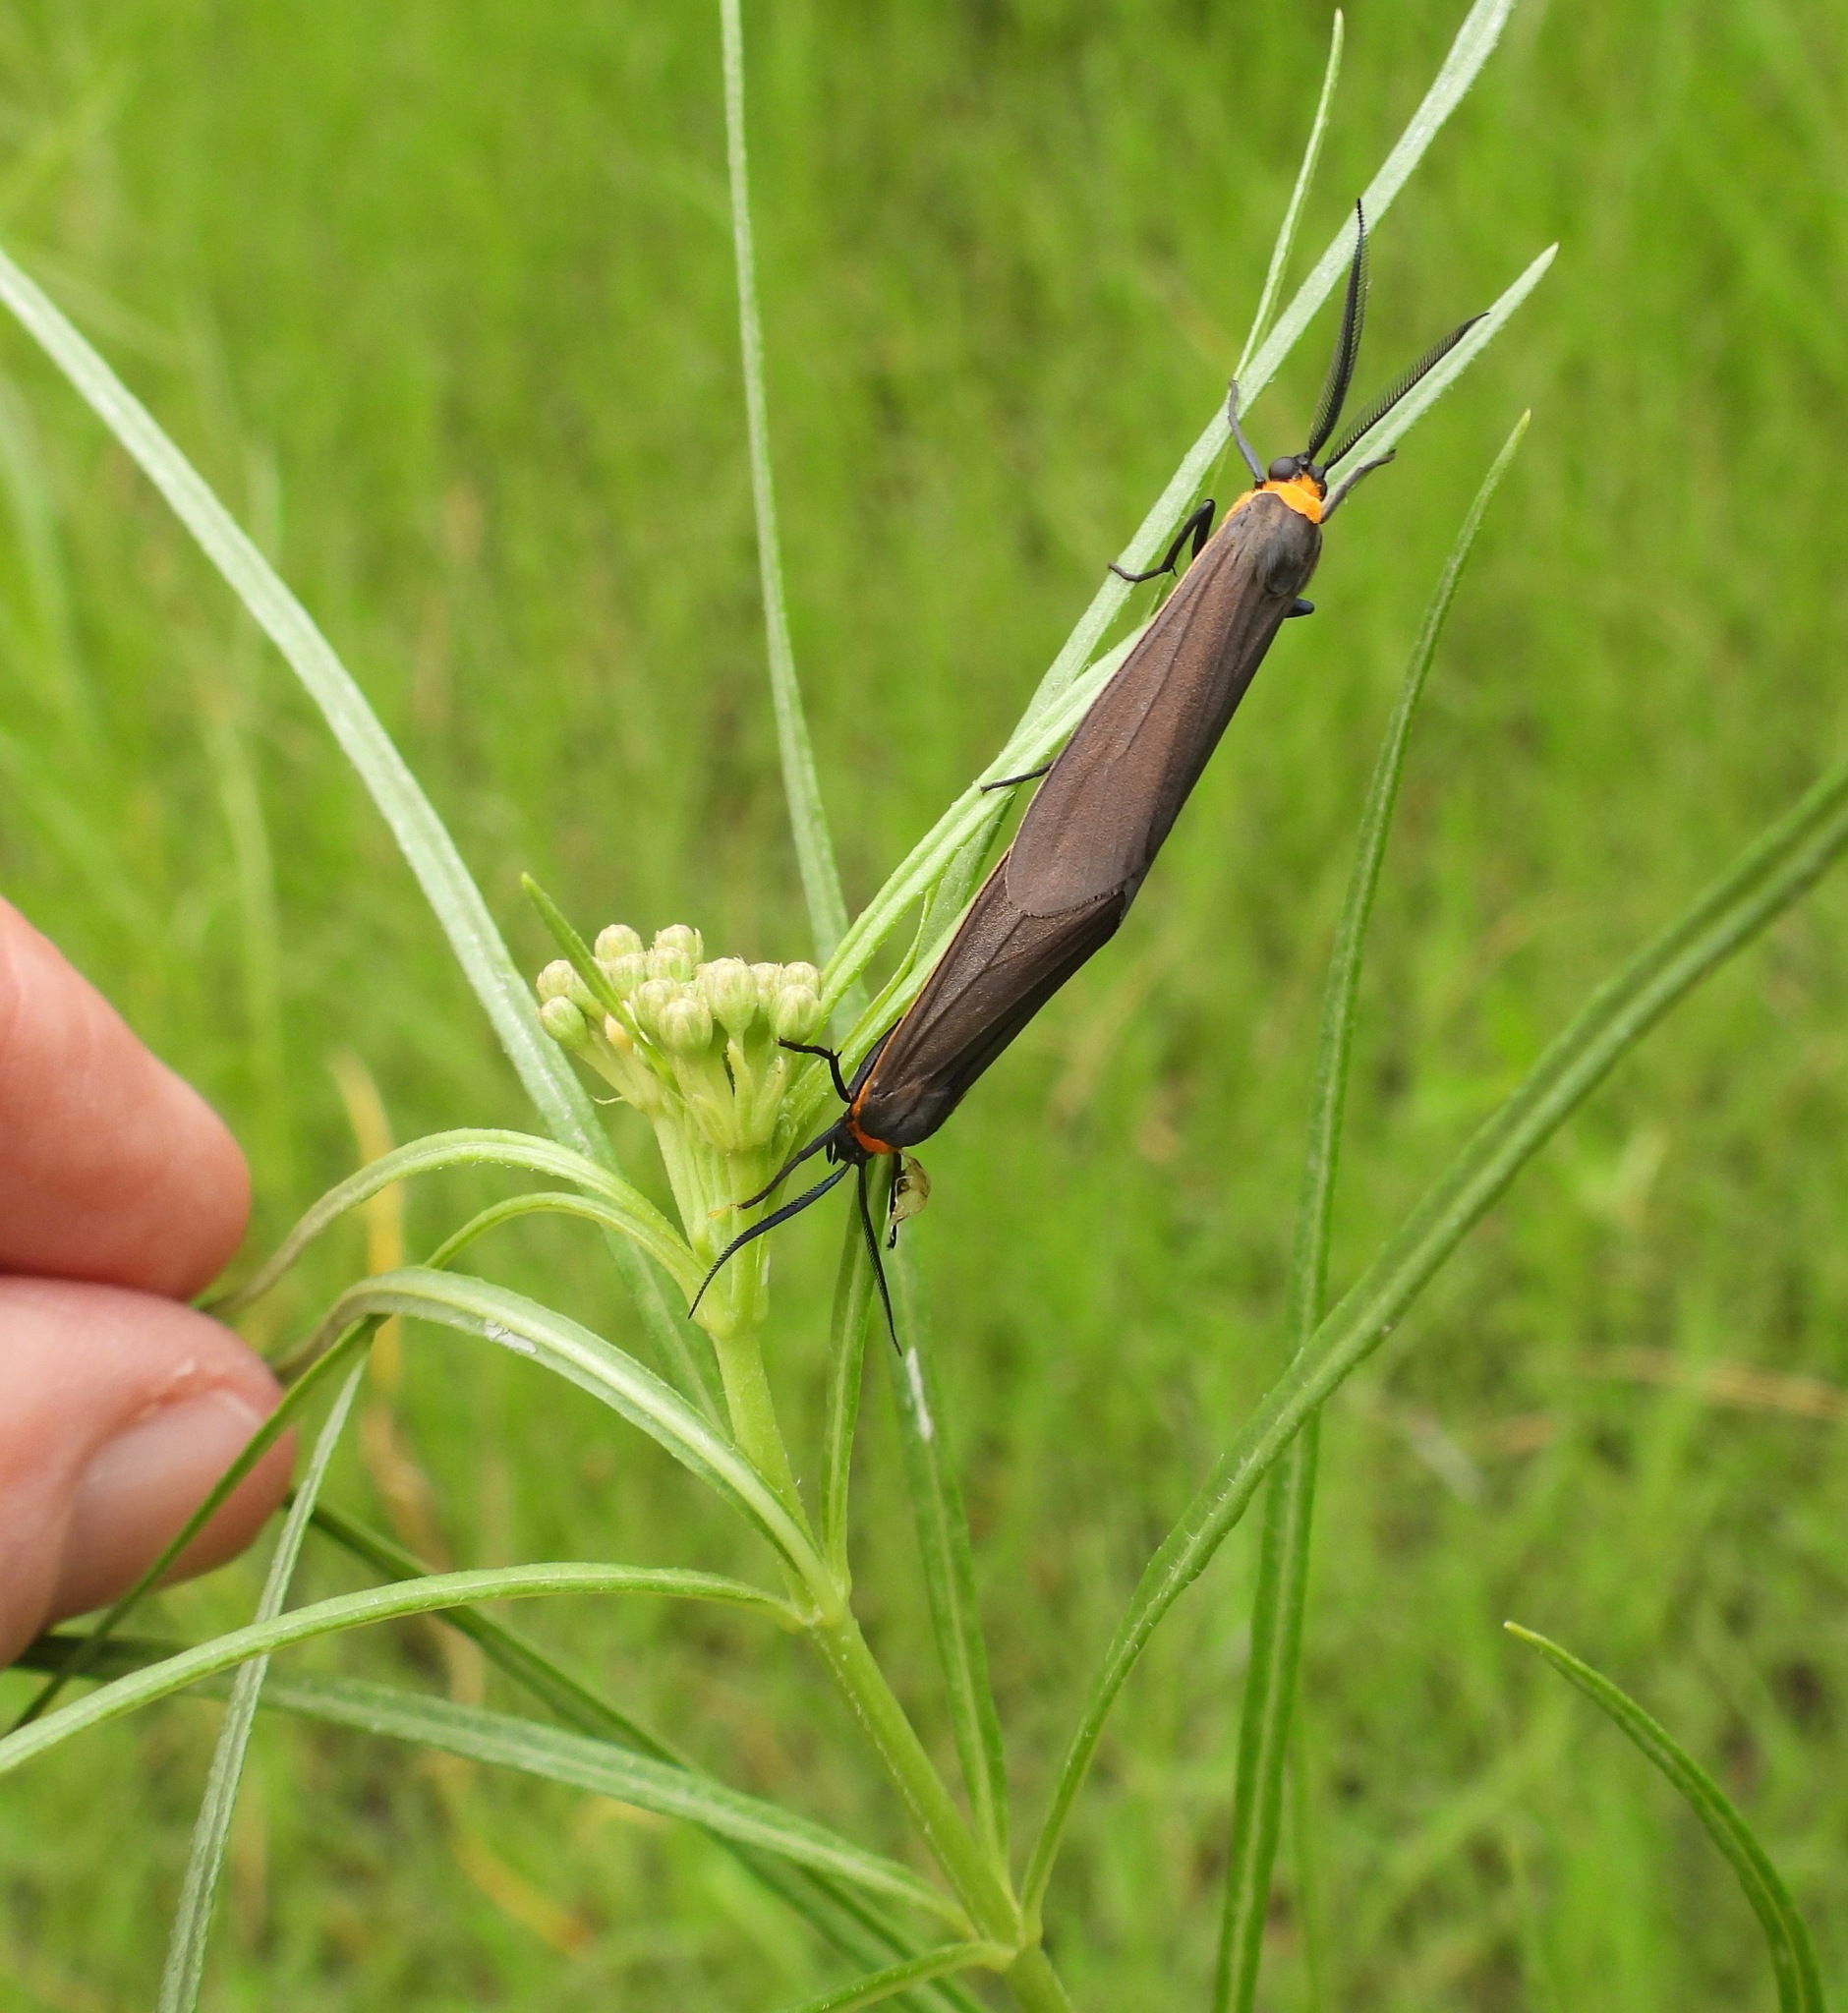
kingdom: Animalia
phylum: Arthropoda
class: Insecta
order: Lepidoptera
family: Erebidae
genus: Cisseps
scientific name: Cisseps fulvicollis
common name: Yellow-collared scape moth
